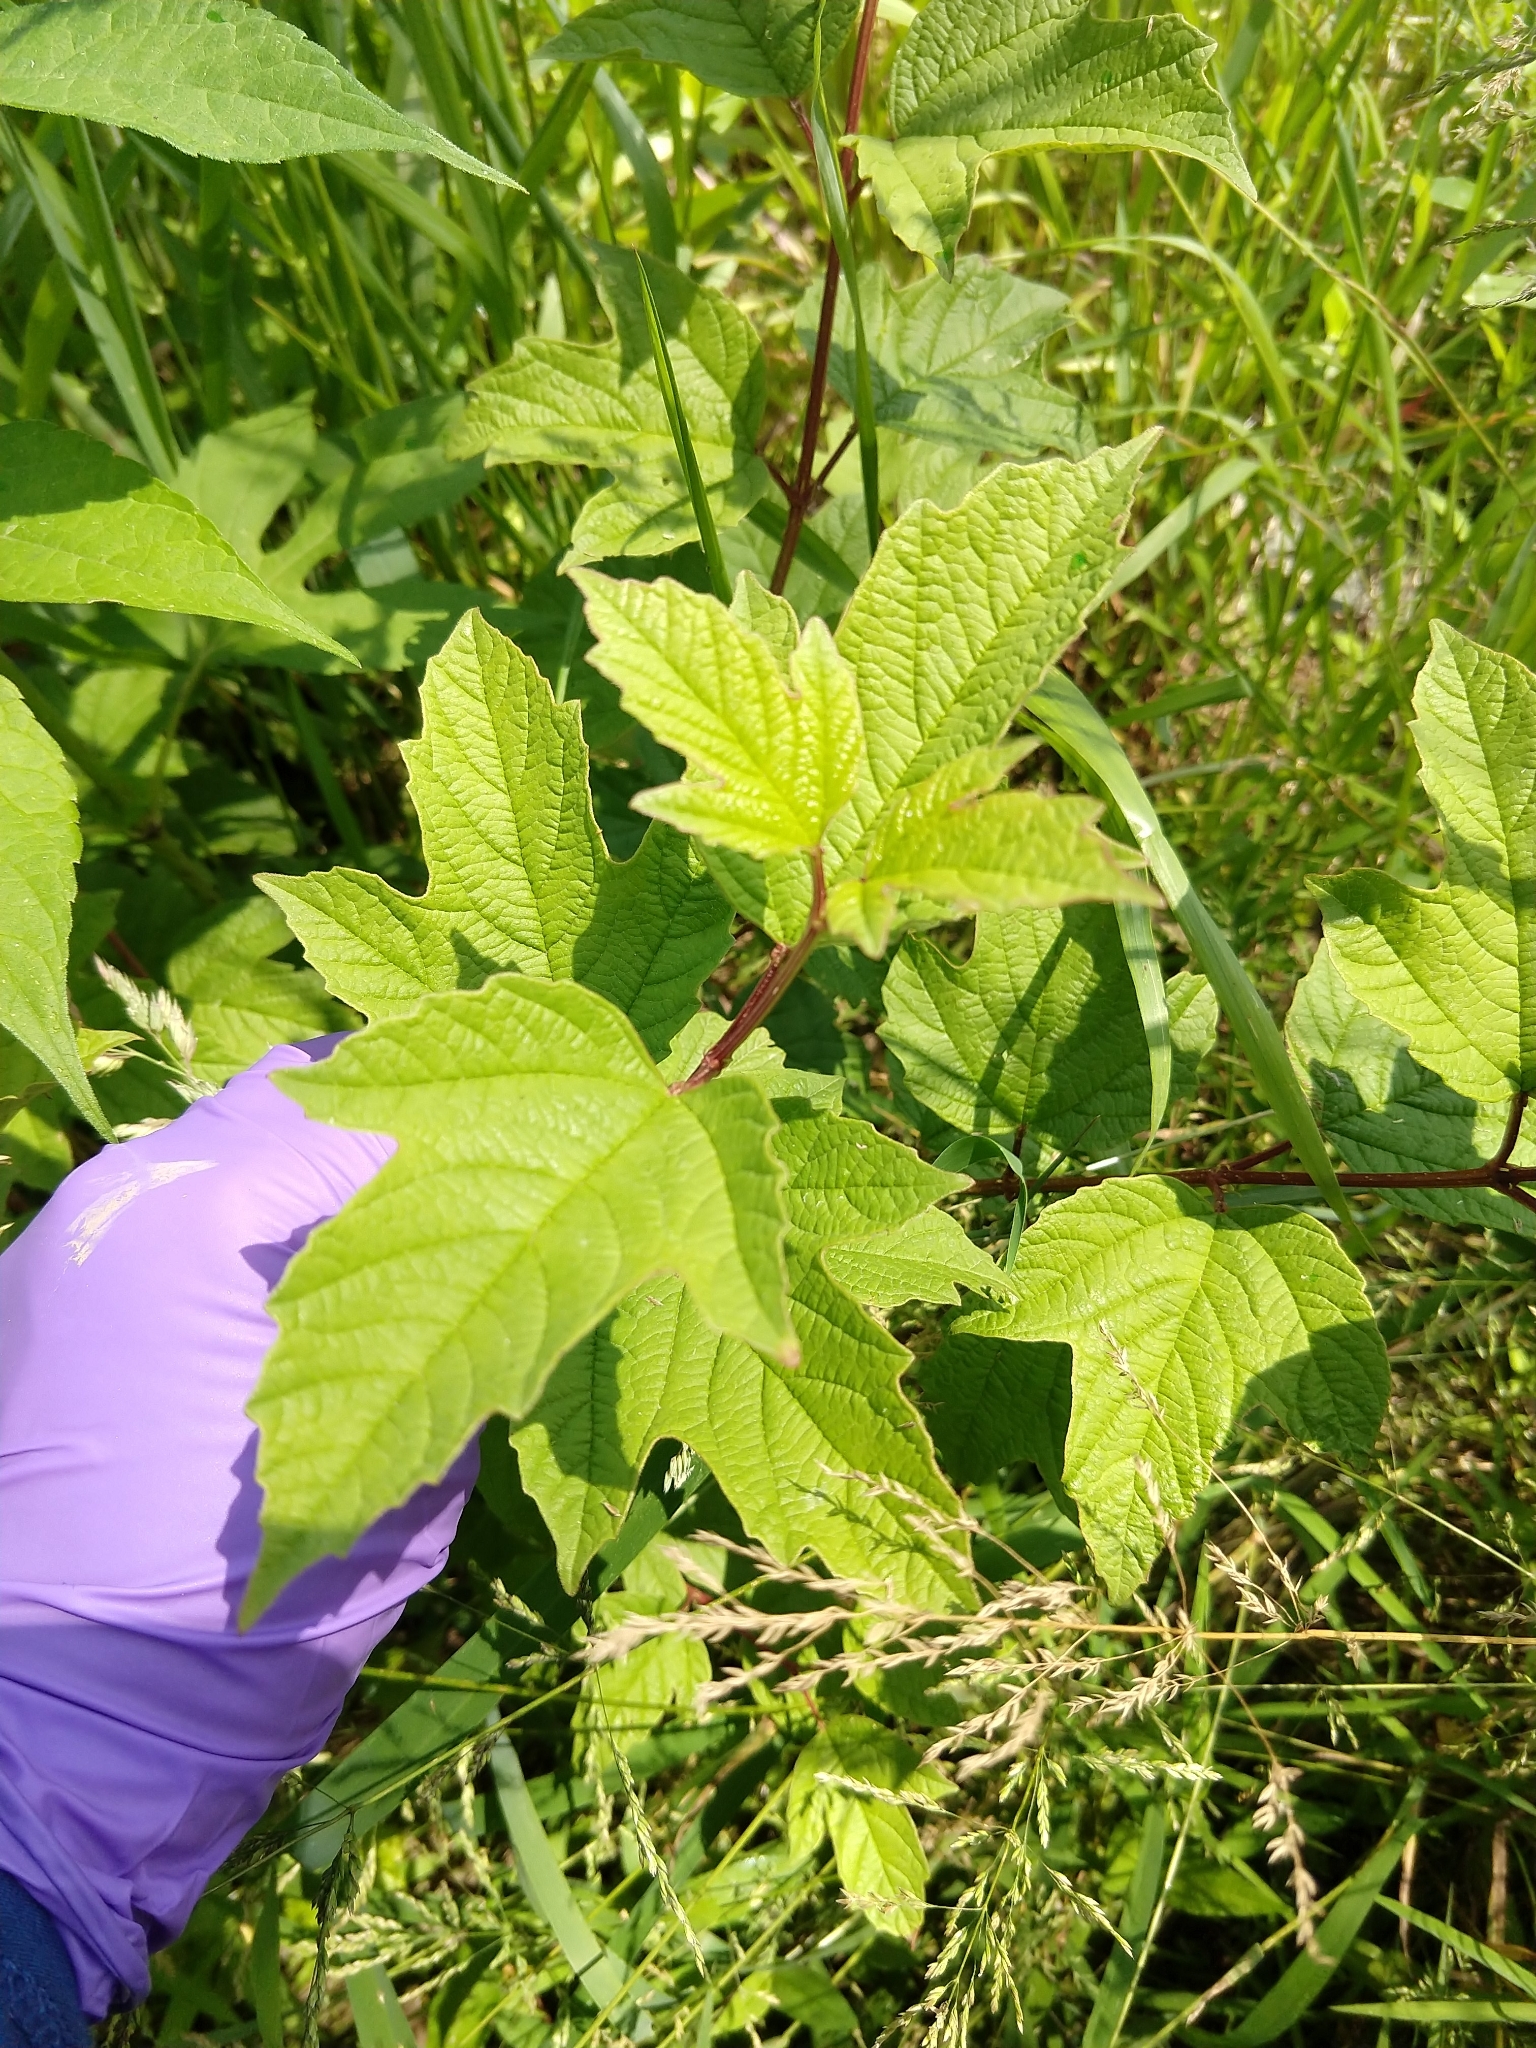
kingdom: Plantae
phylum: Tracheophyta
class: Magnoliopsida
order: Dipsacales
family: Viburnaceae
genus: Viburnum
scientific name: Viburnum opulus
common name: Guelder-rose
